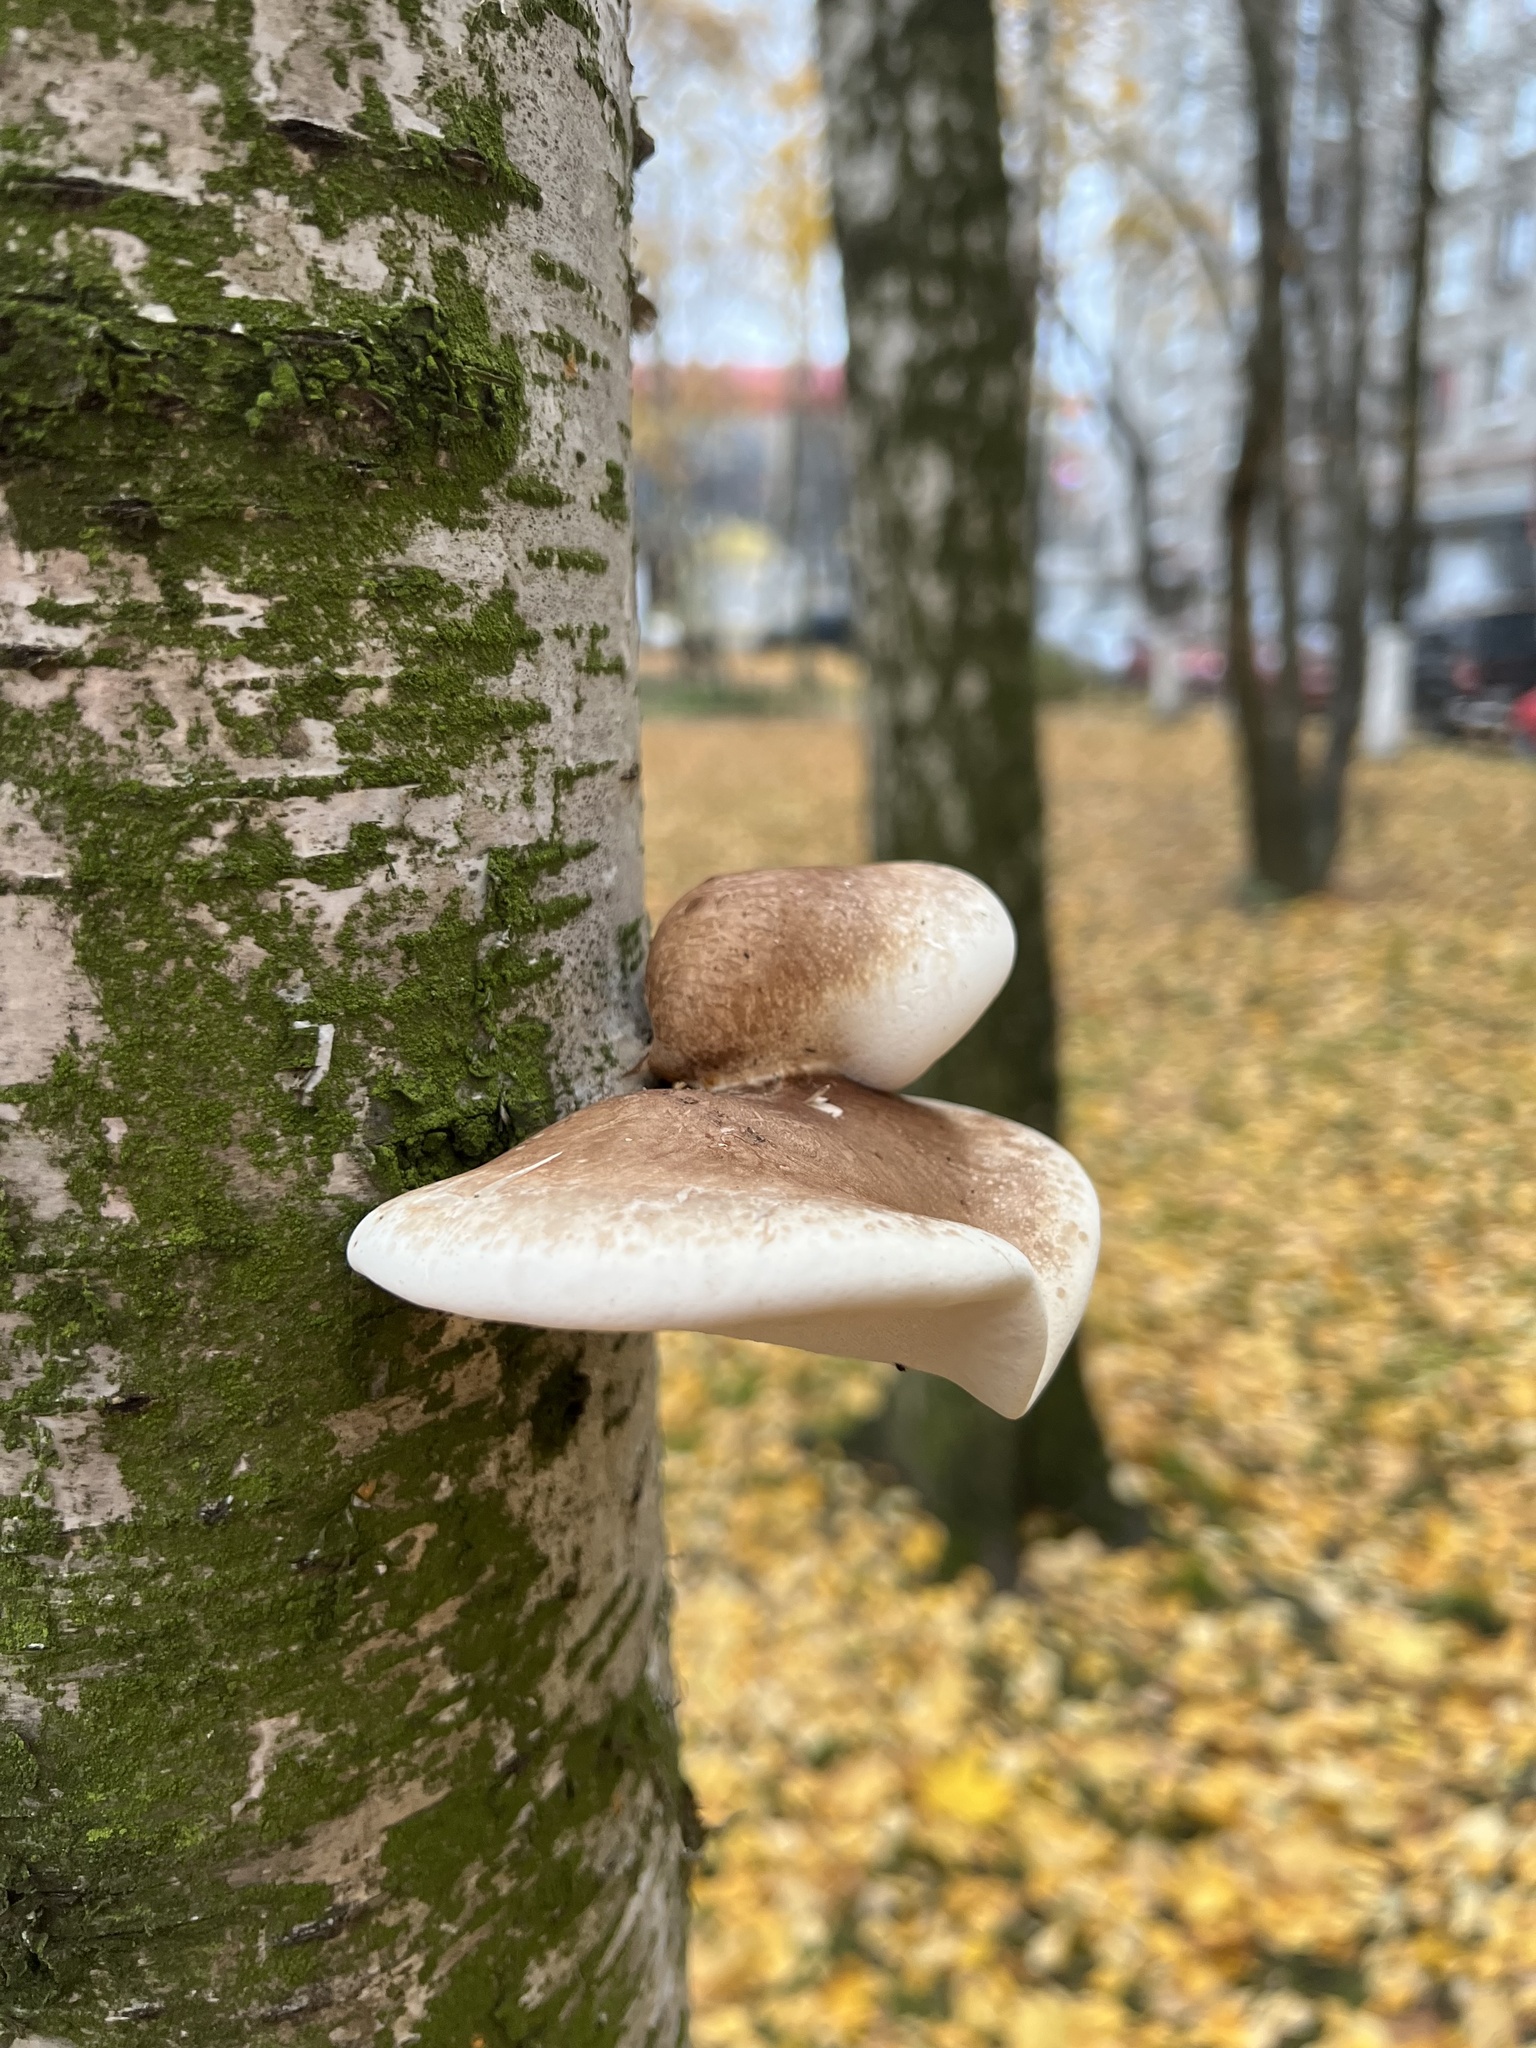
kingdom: Fungi
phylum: Basidiomycota
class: Agaricomycetes
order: Polyporales
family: Fomitopsidaceae
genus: Fomitopsis
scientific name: Fomitopsis betulina
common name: Birch polypore
